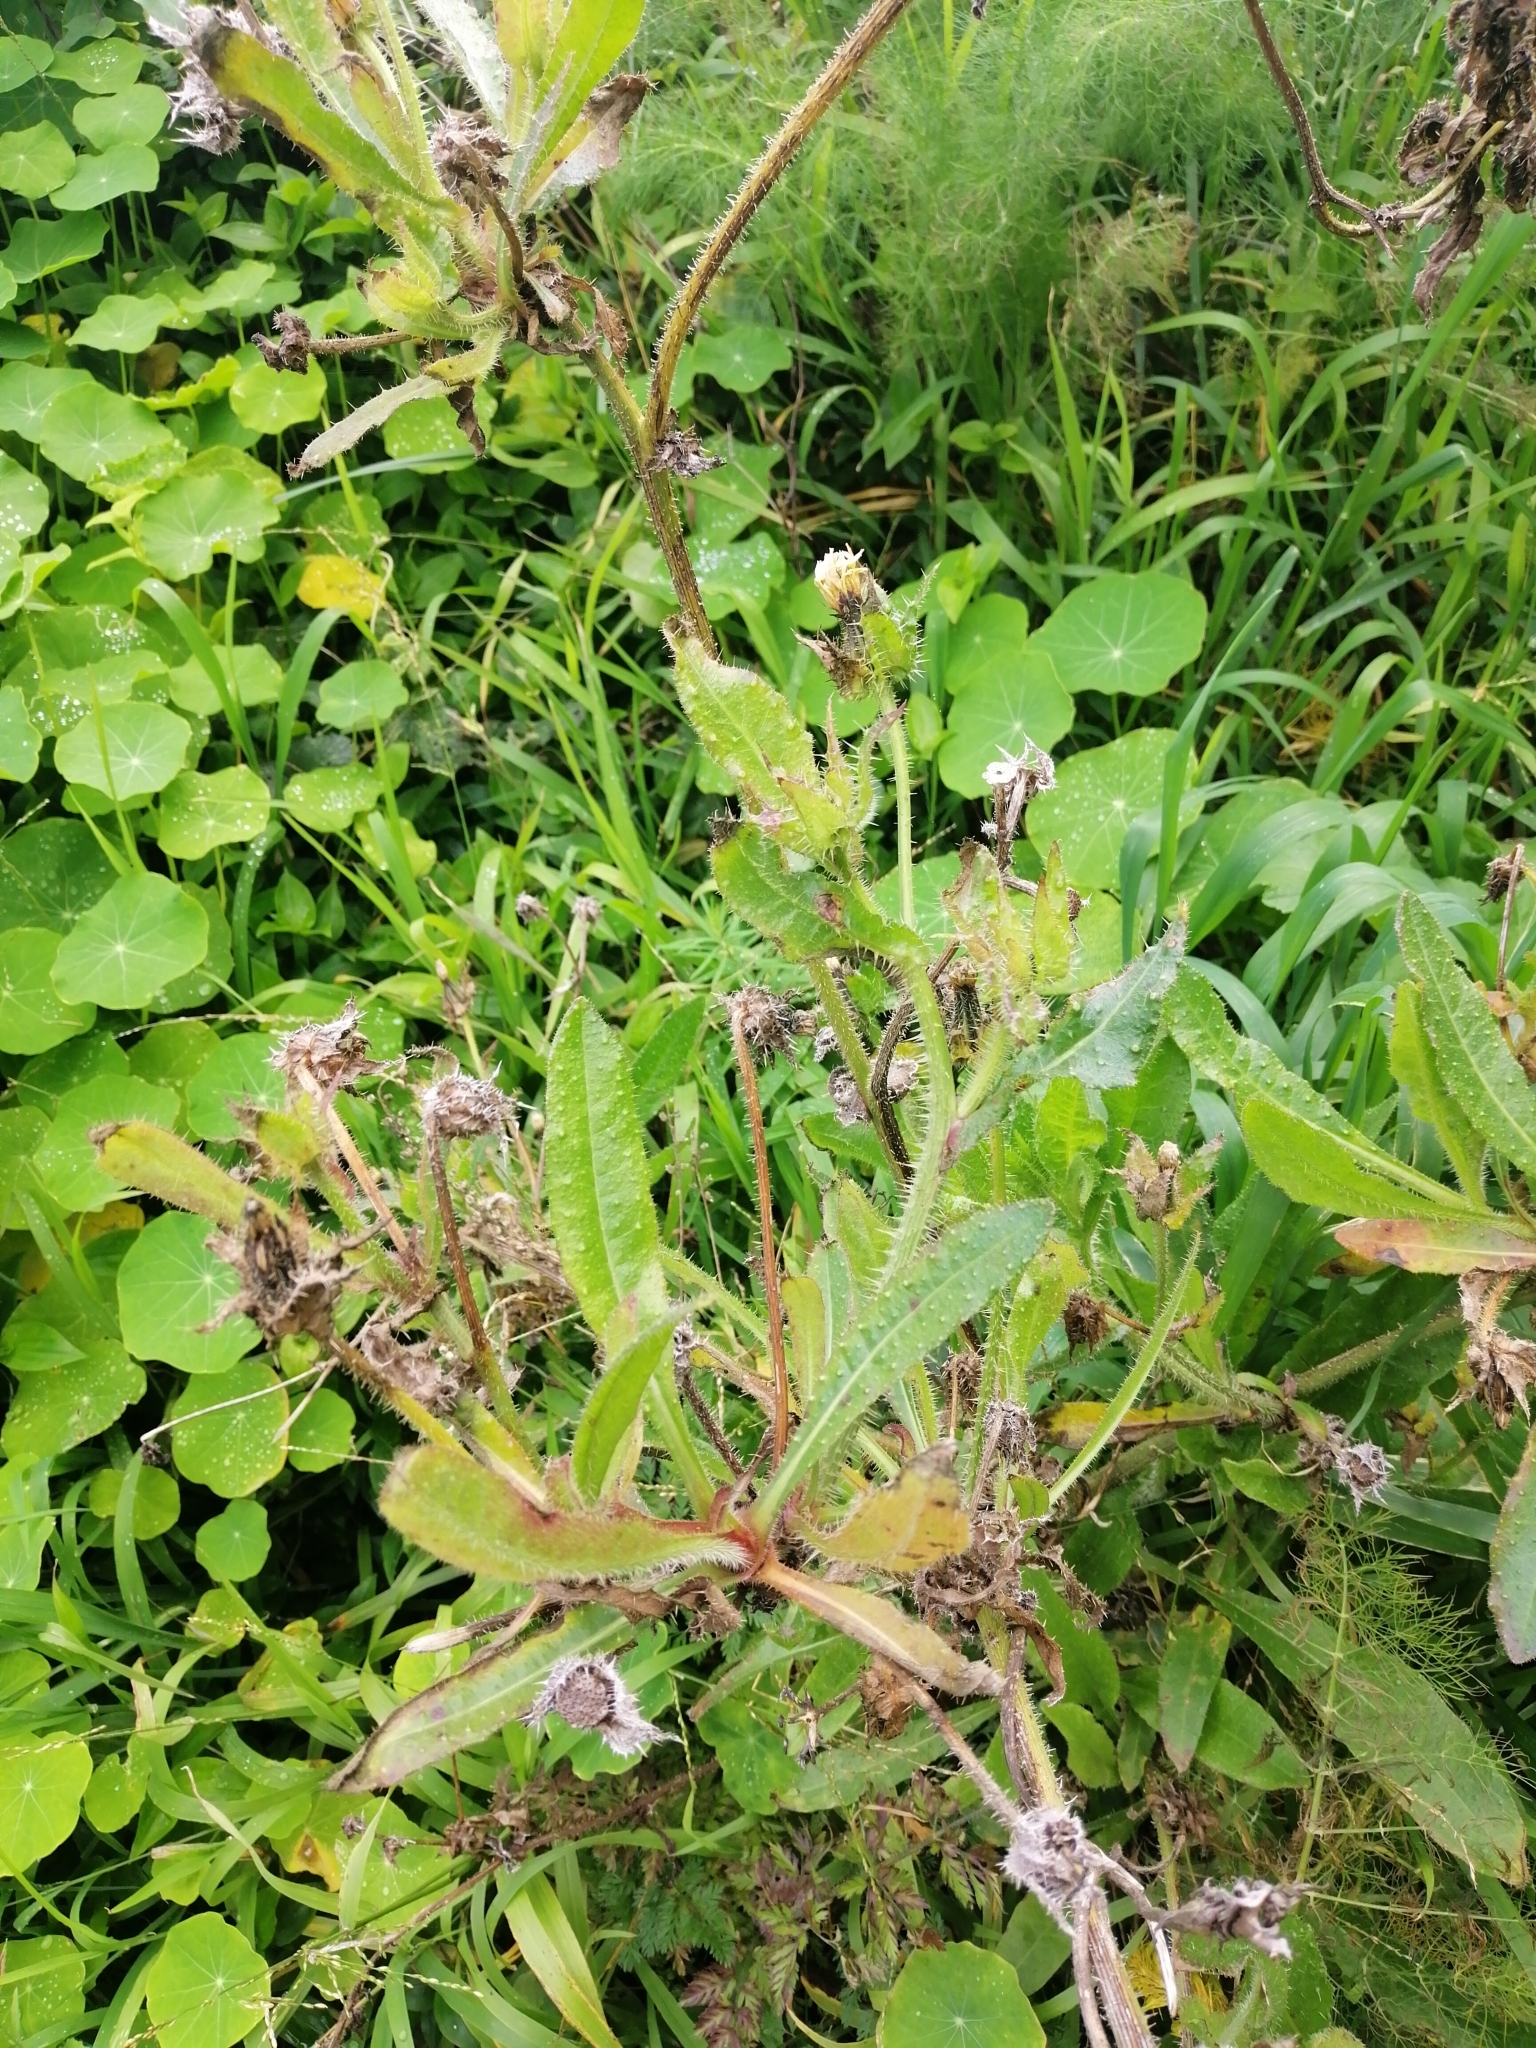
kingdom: Plantae
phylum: Tracheophyta
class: Magnoliopsida
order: Asterales
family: Asteraceae
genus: Helminthotheca
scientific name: Helminthotheca echioides
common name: Ox-tongue
